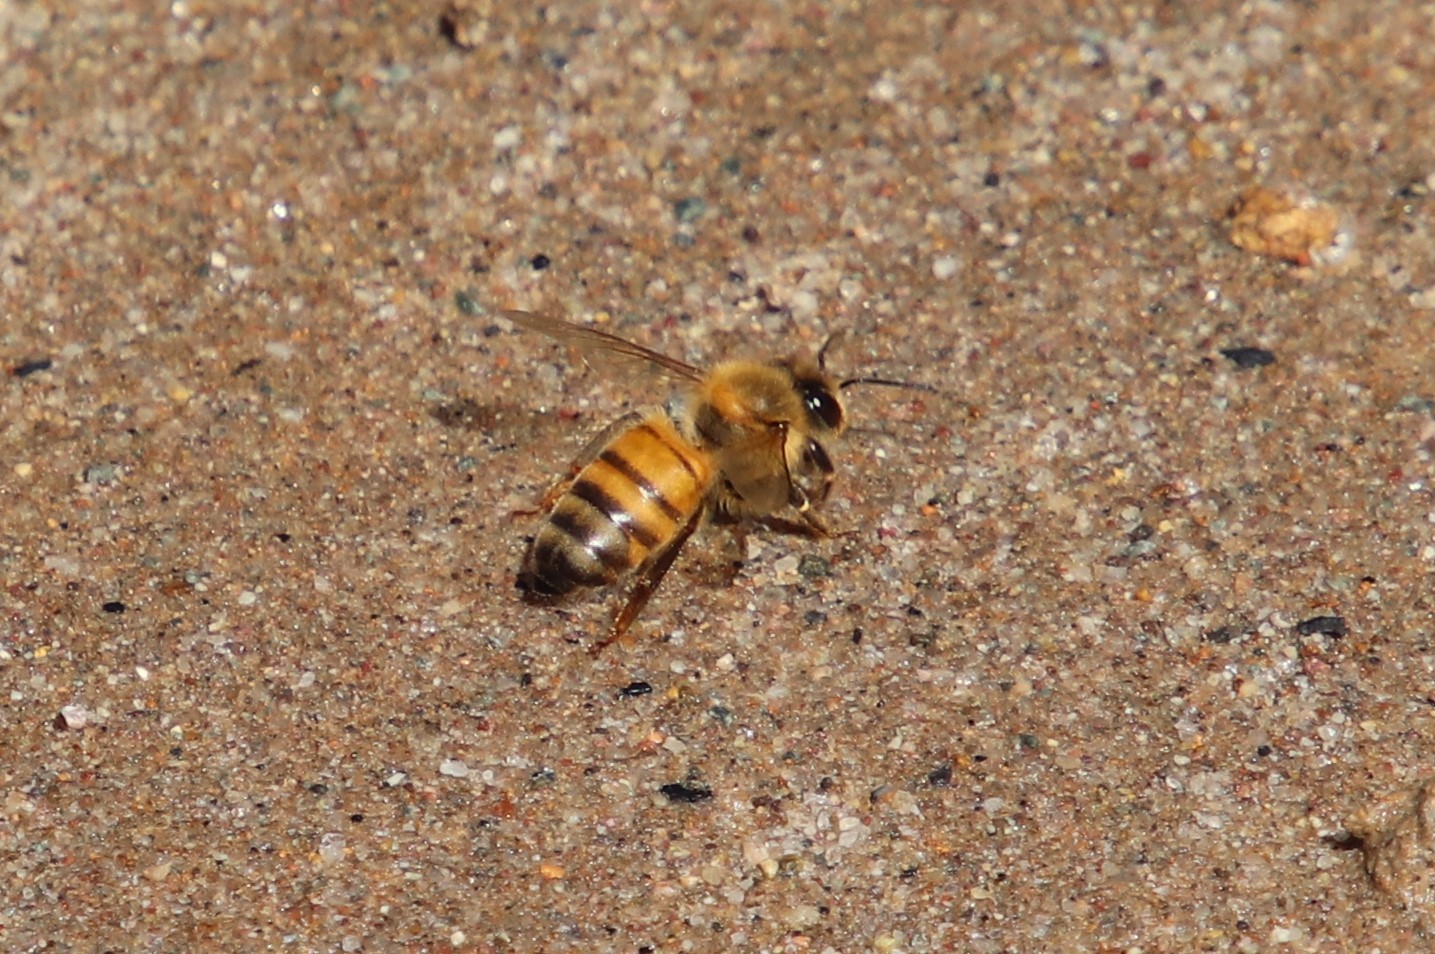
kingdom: Animalia
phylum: Arthropoda
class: Insecta
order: Hymenoptera
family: Apidae
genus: Apis
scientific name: Apis mellifera
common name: Honey bee
